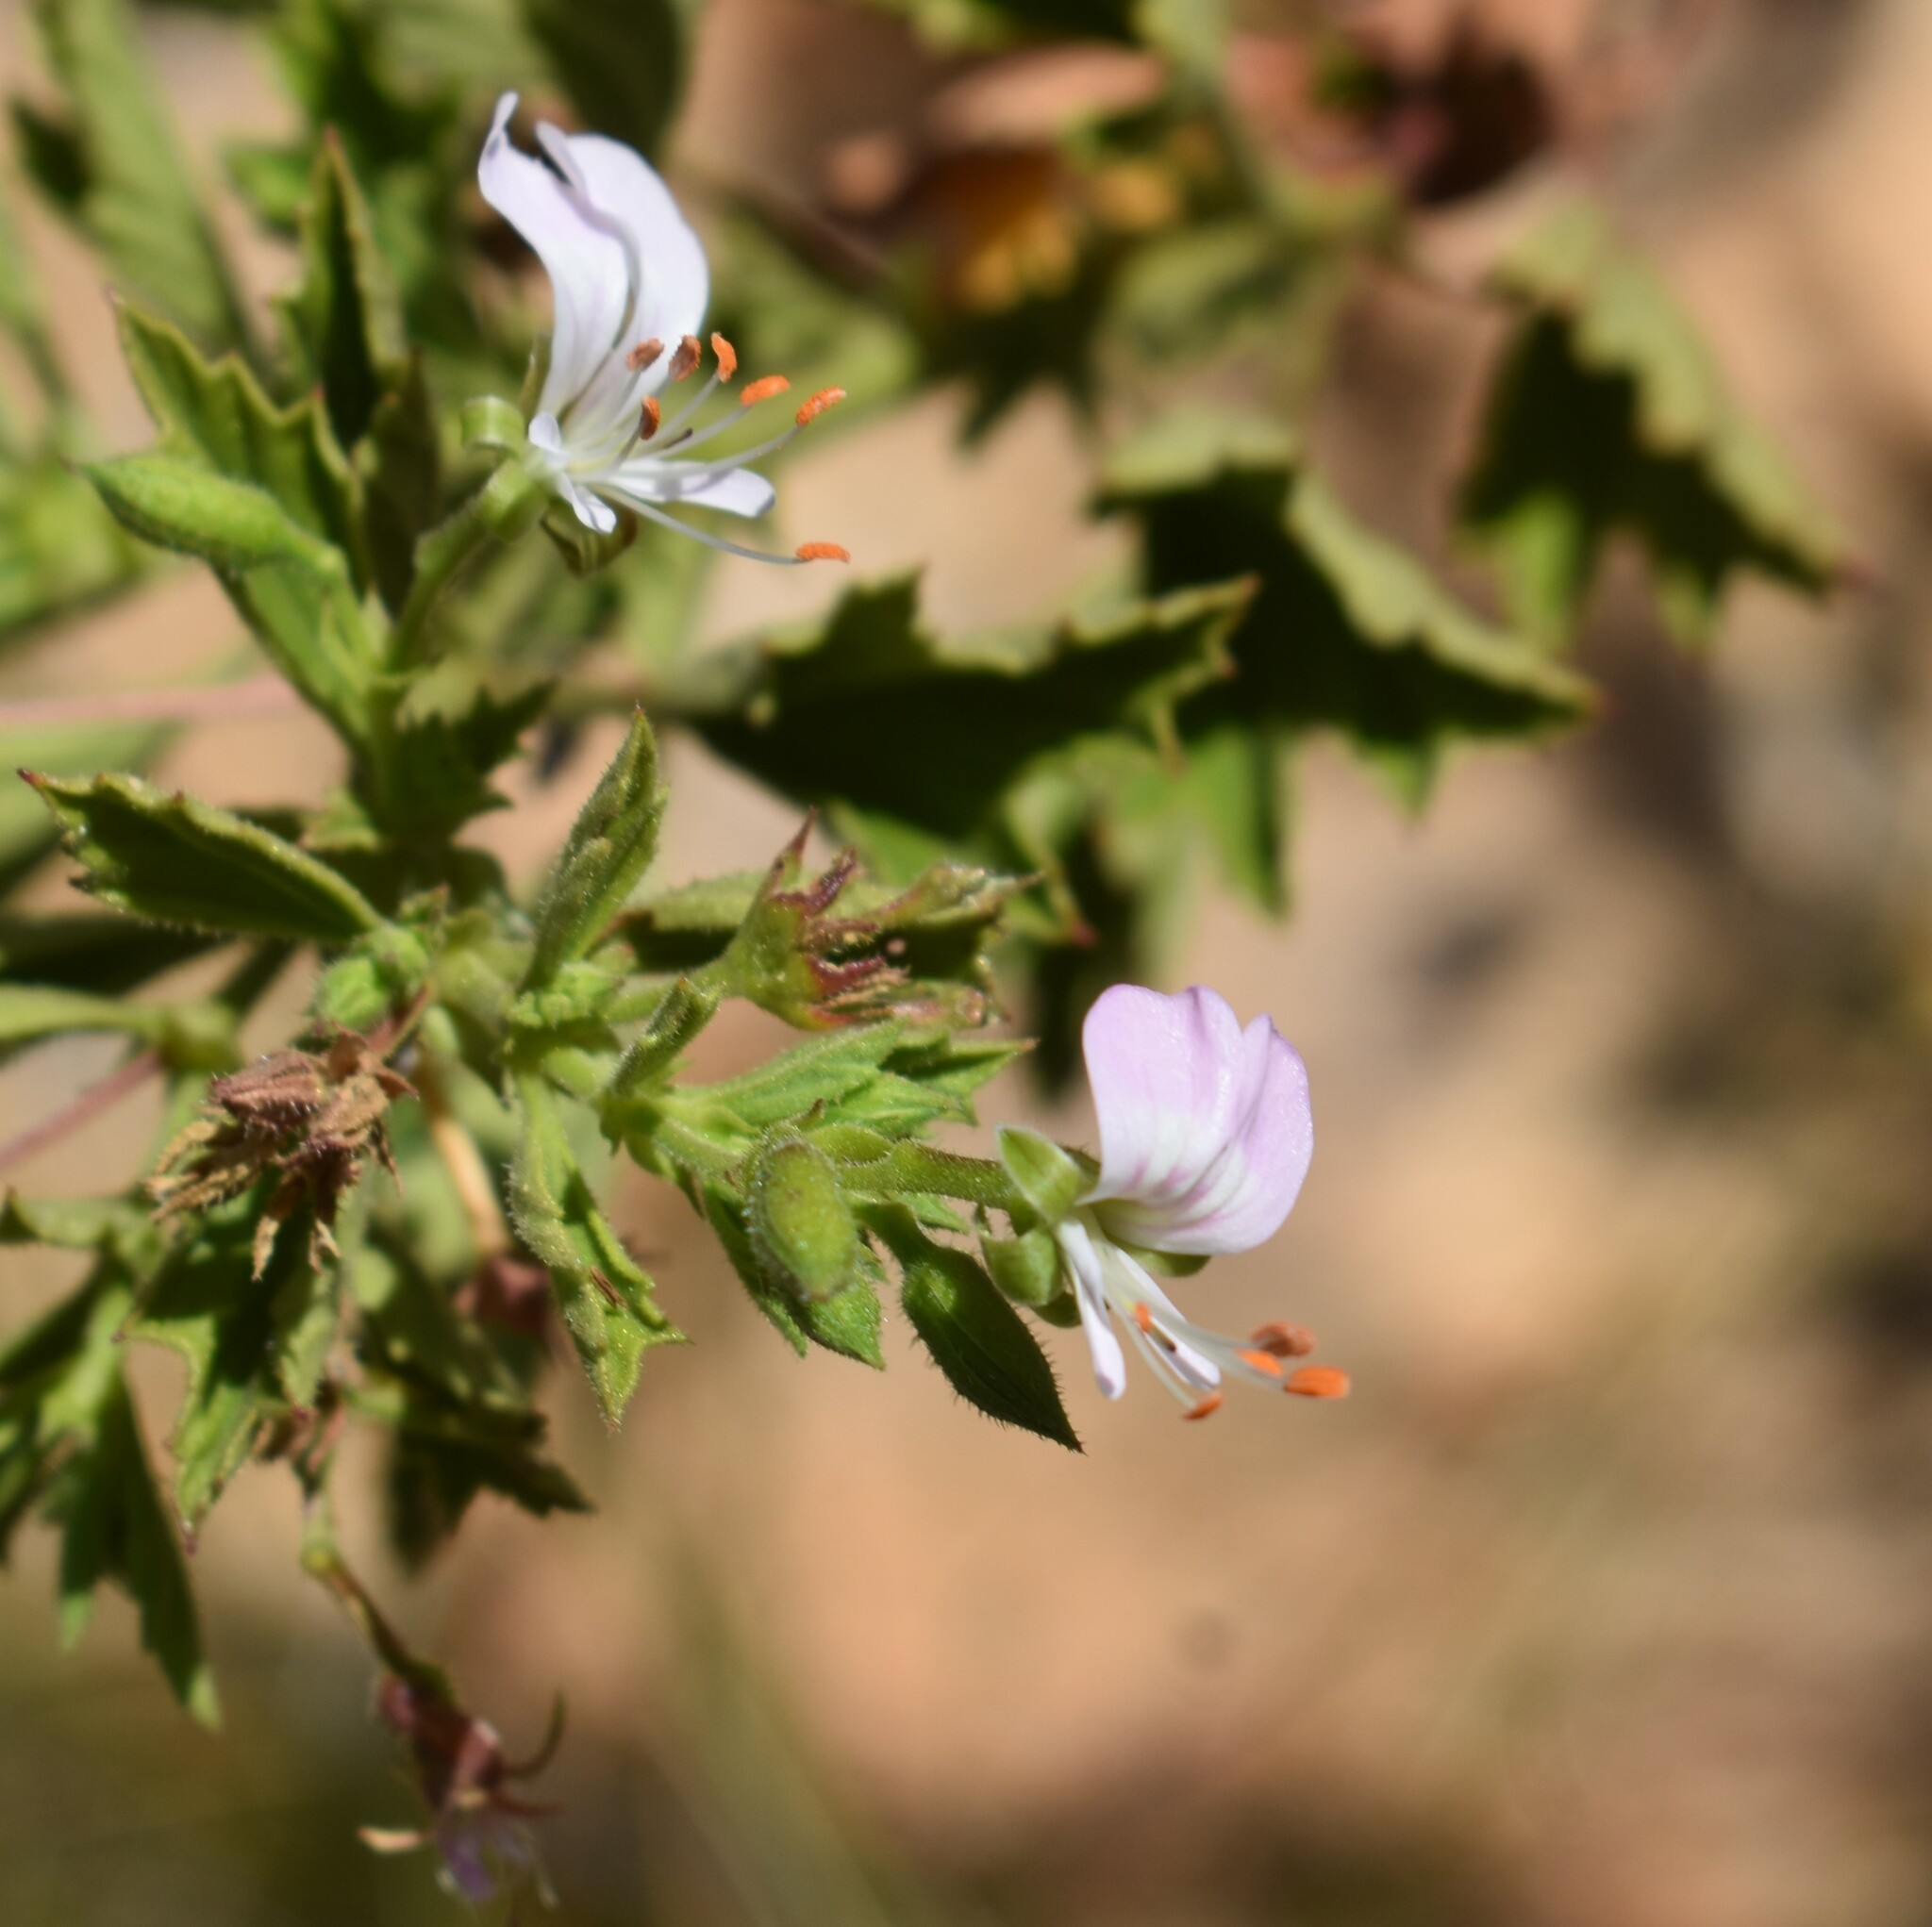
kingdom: Plantae
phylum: Tracheophyta
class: Magnoliopsida
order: Geraniales
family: Geraniaceae
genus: Pelargonium
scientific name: Pelargonium scabrum
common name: Apricot geranium
